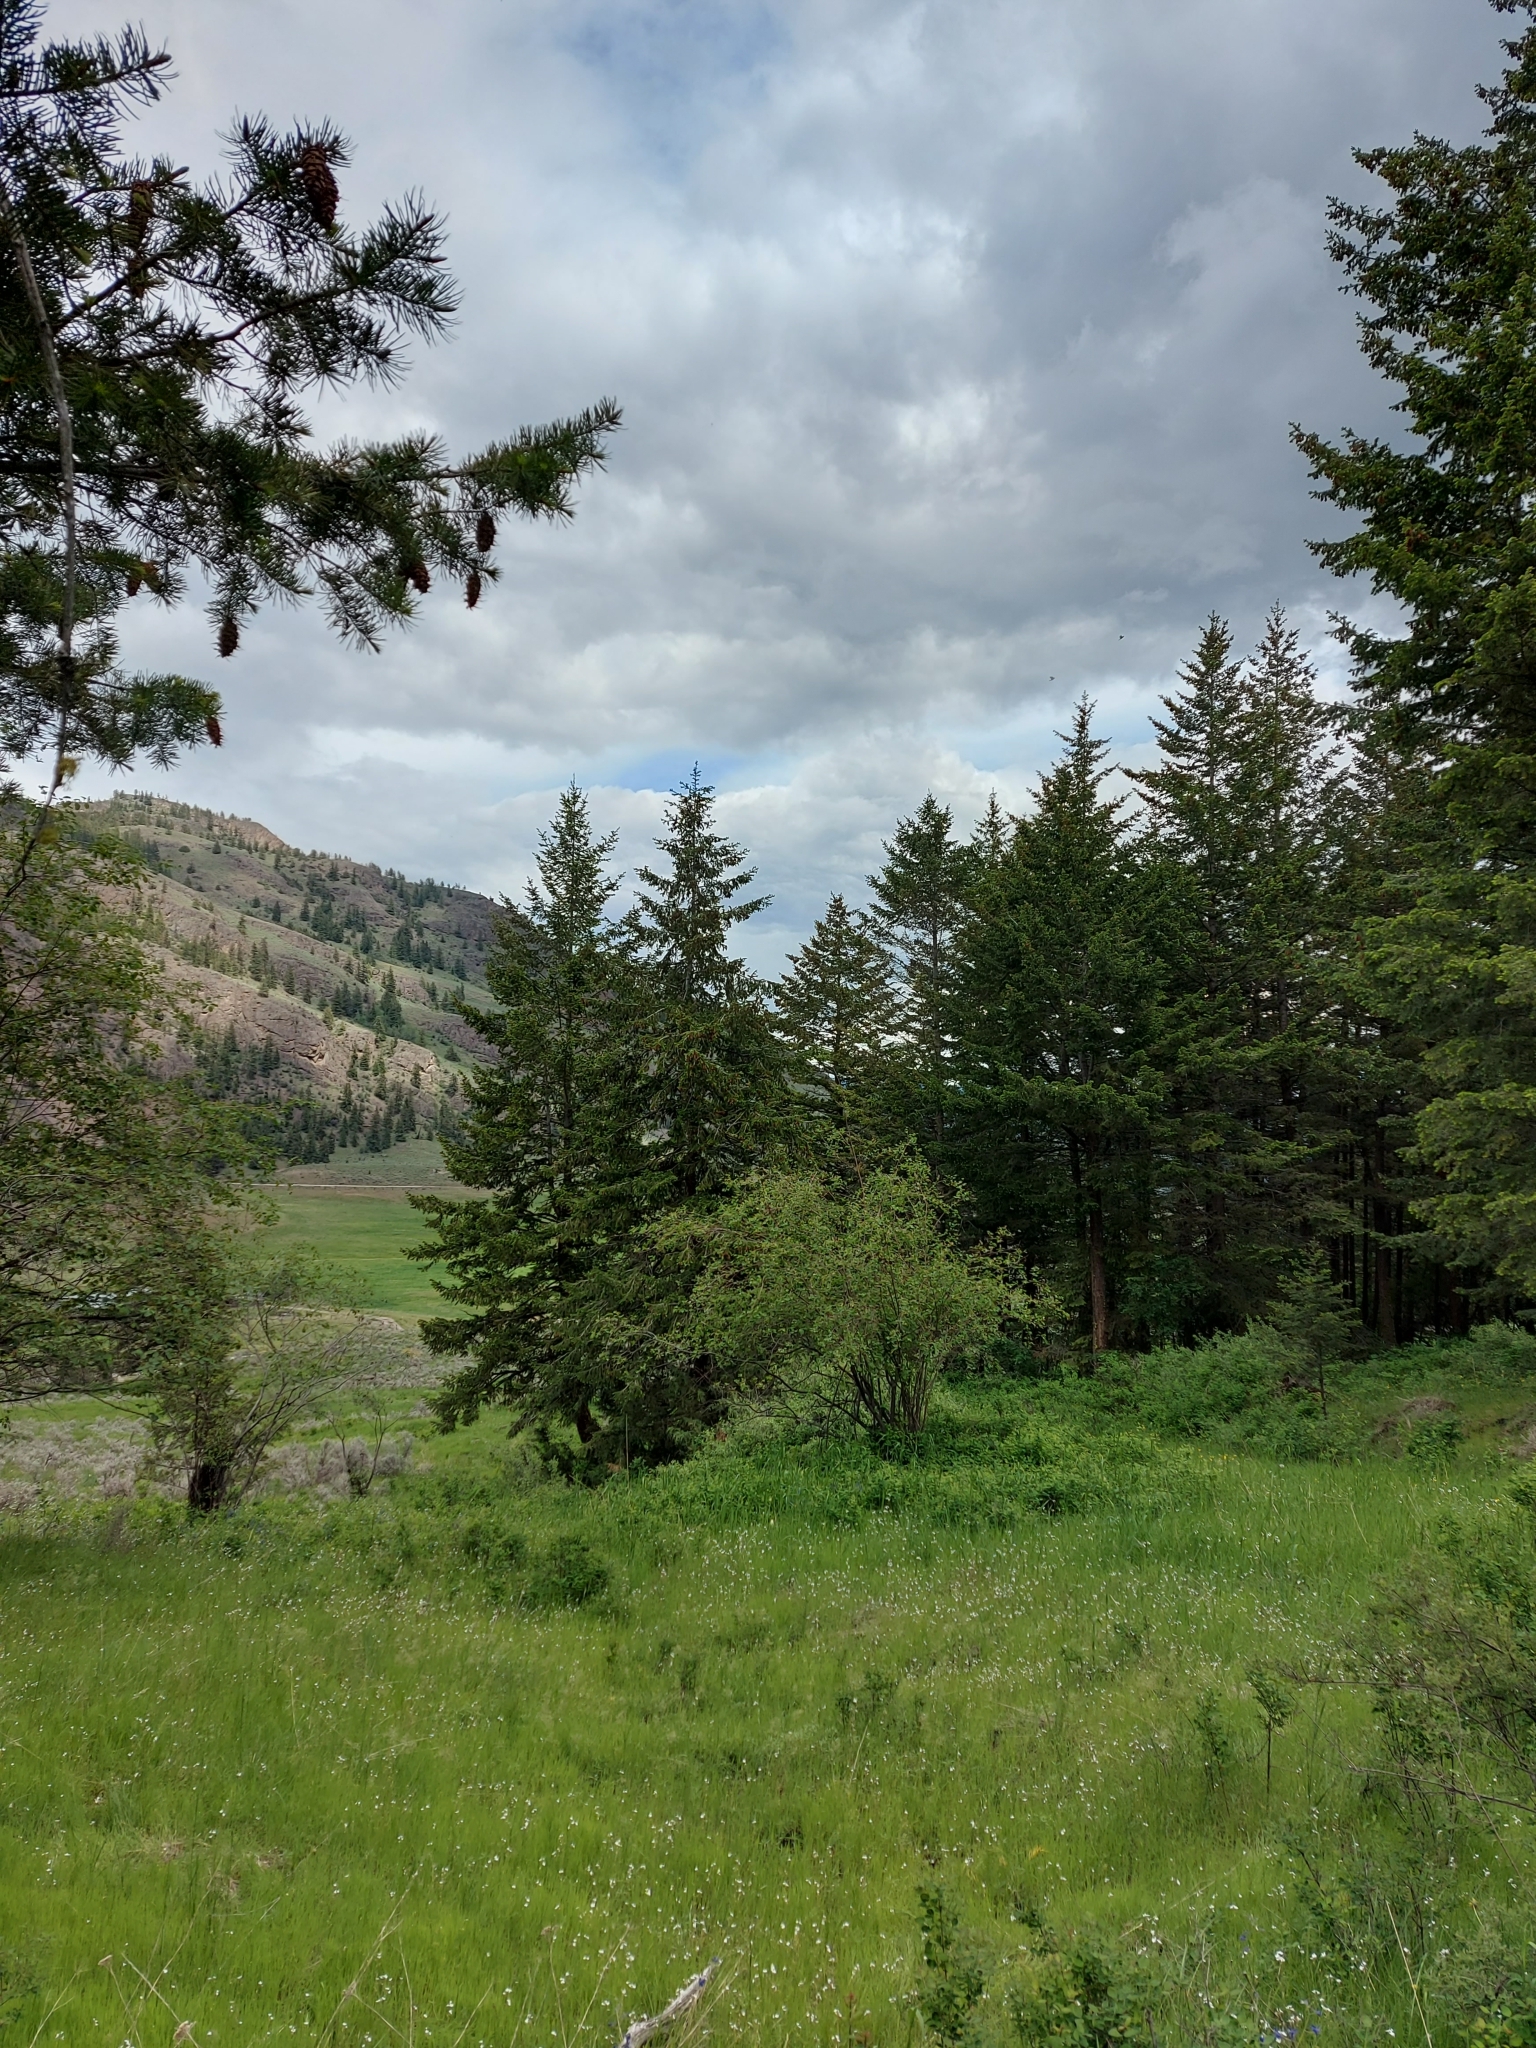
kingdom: Animalia
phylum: Chordata
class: Aves
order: Passeriformes
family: Cardinalidae
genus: Passerina
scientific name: Passerina amoena
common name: Lazuli bunting
